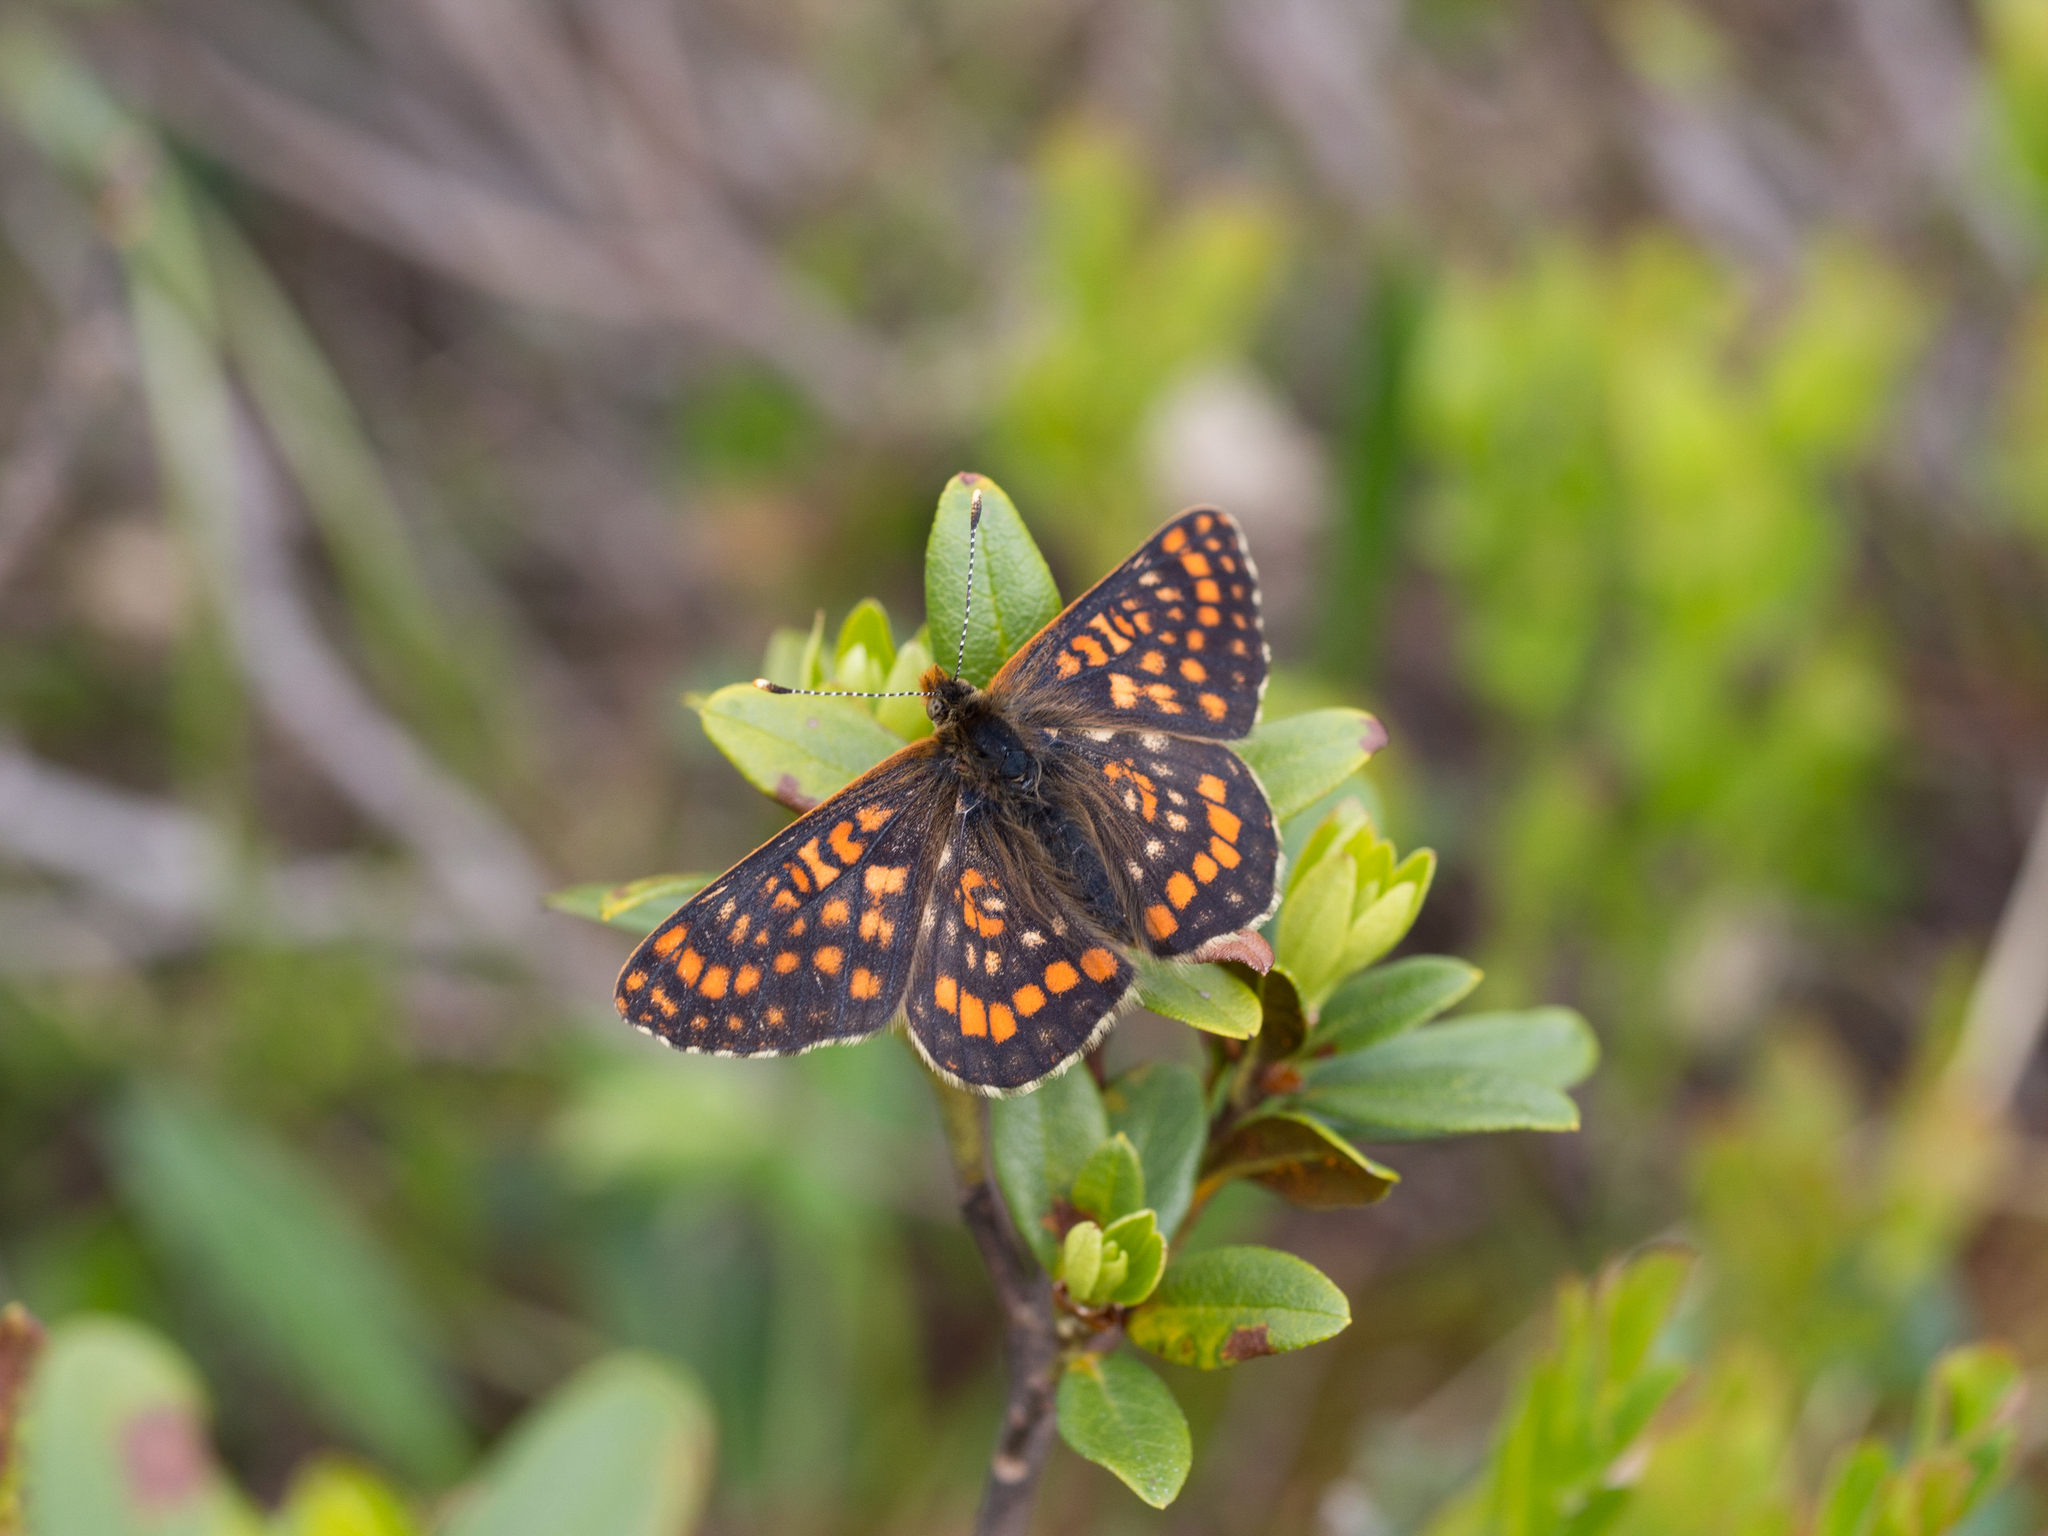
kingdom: Animalia
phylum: Arthropoda
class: Insecta
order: Lepidoptera
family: Nymphalidae
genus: Hypodryas
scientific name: Hypodryas intermedia
